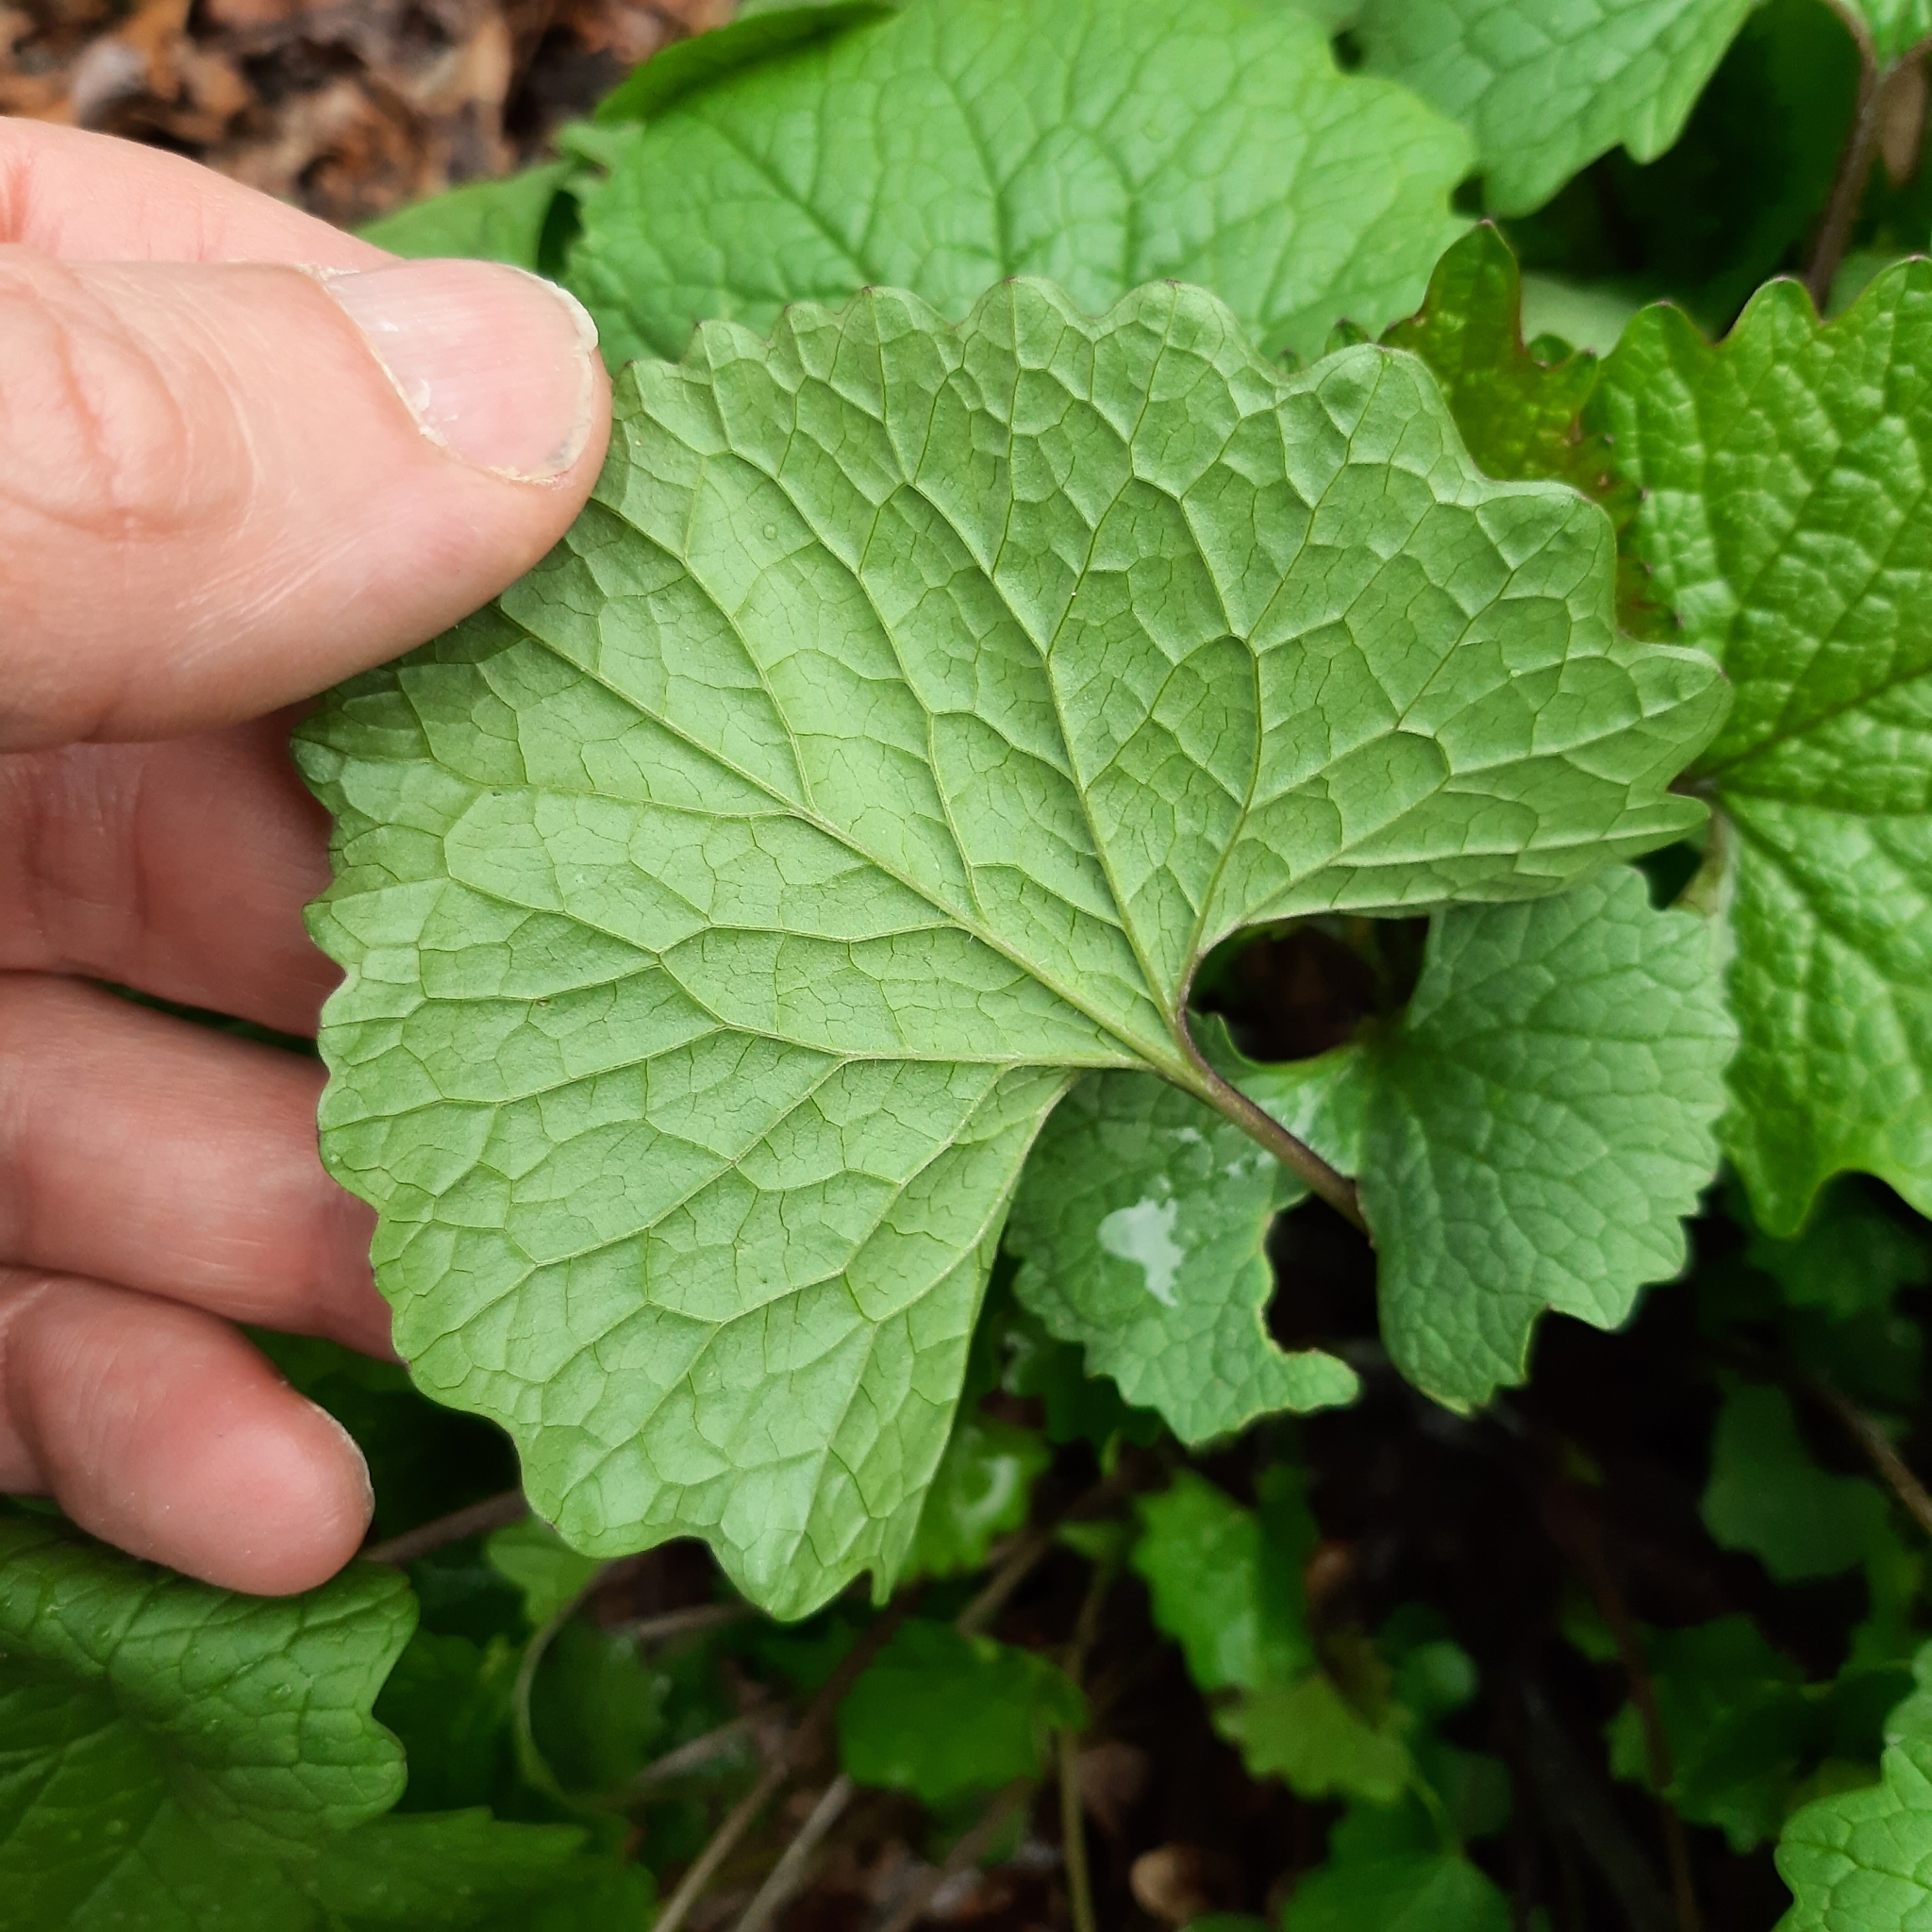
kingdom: Plantae
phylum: Tracheophyta
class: Magnoliopsida
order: Brassicales
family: Brassicaceae
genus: Alliaria
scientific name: Alliaria petiolata
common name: Garlic mustard
